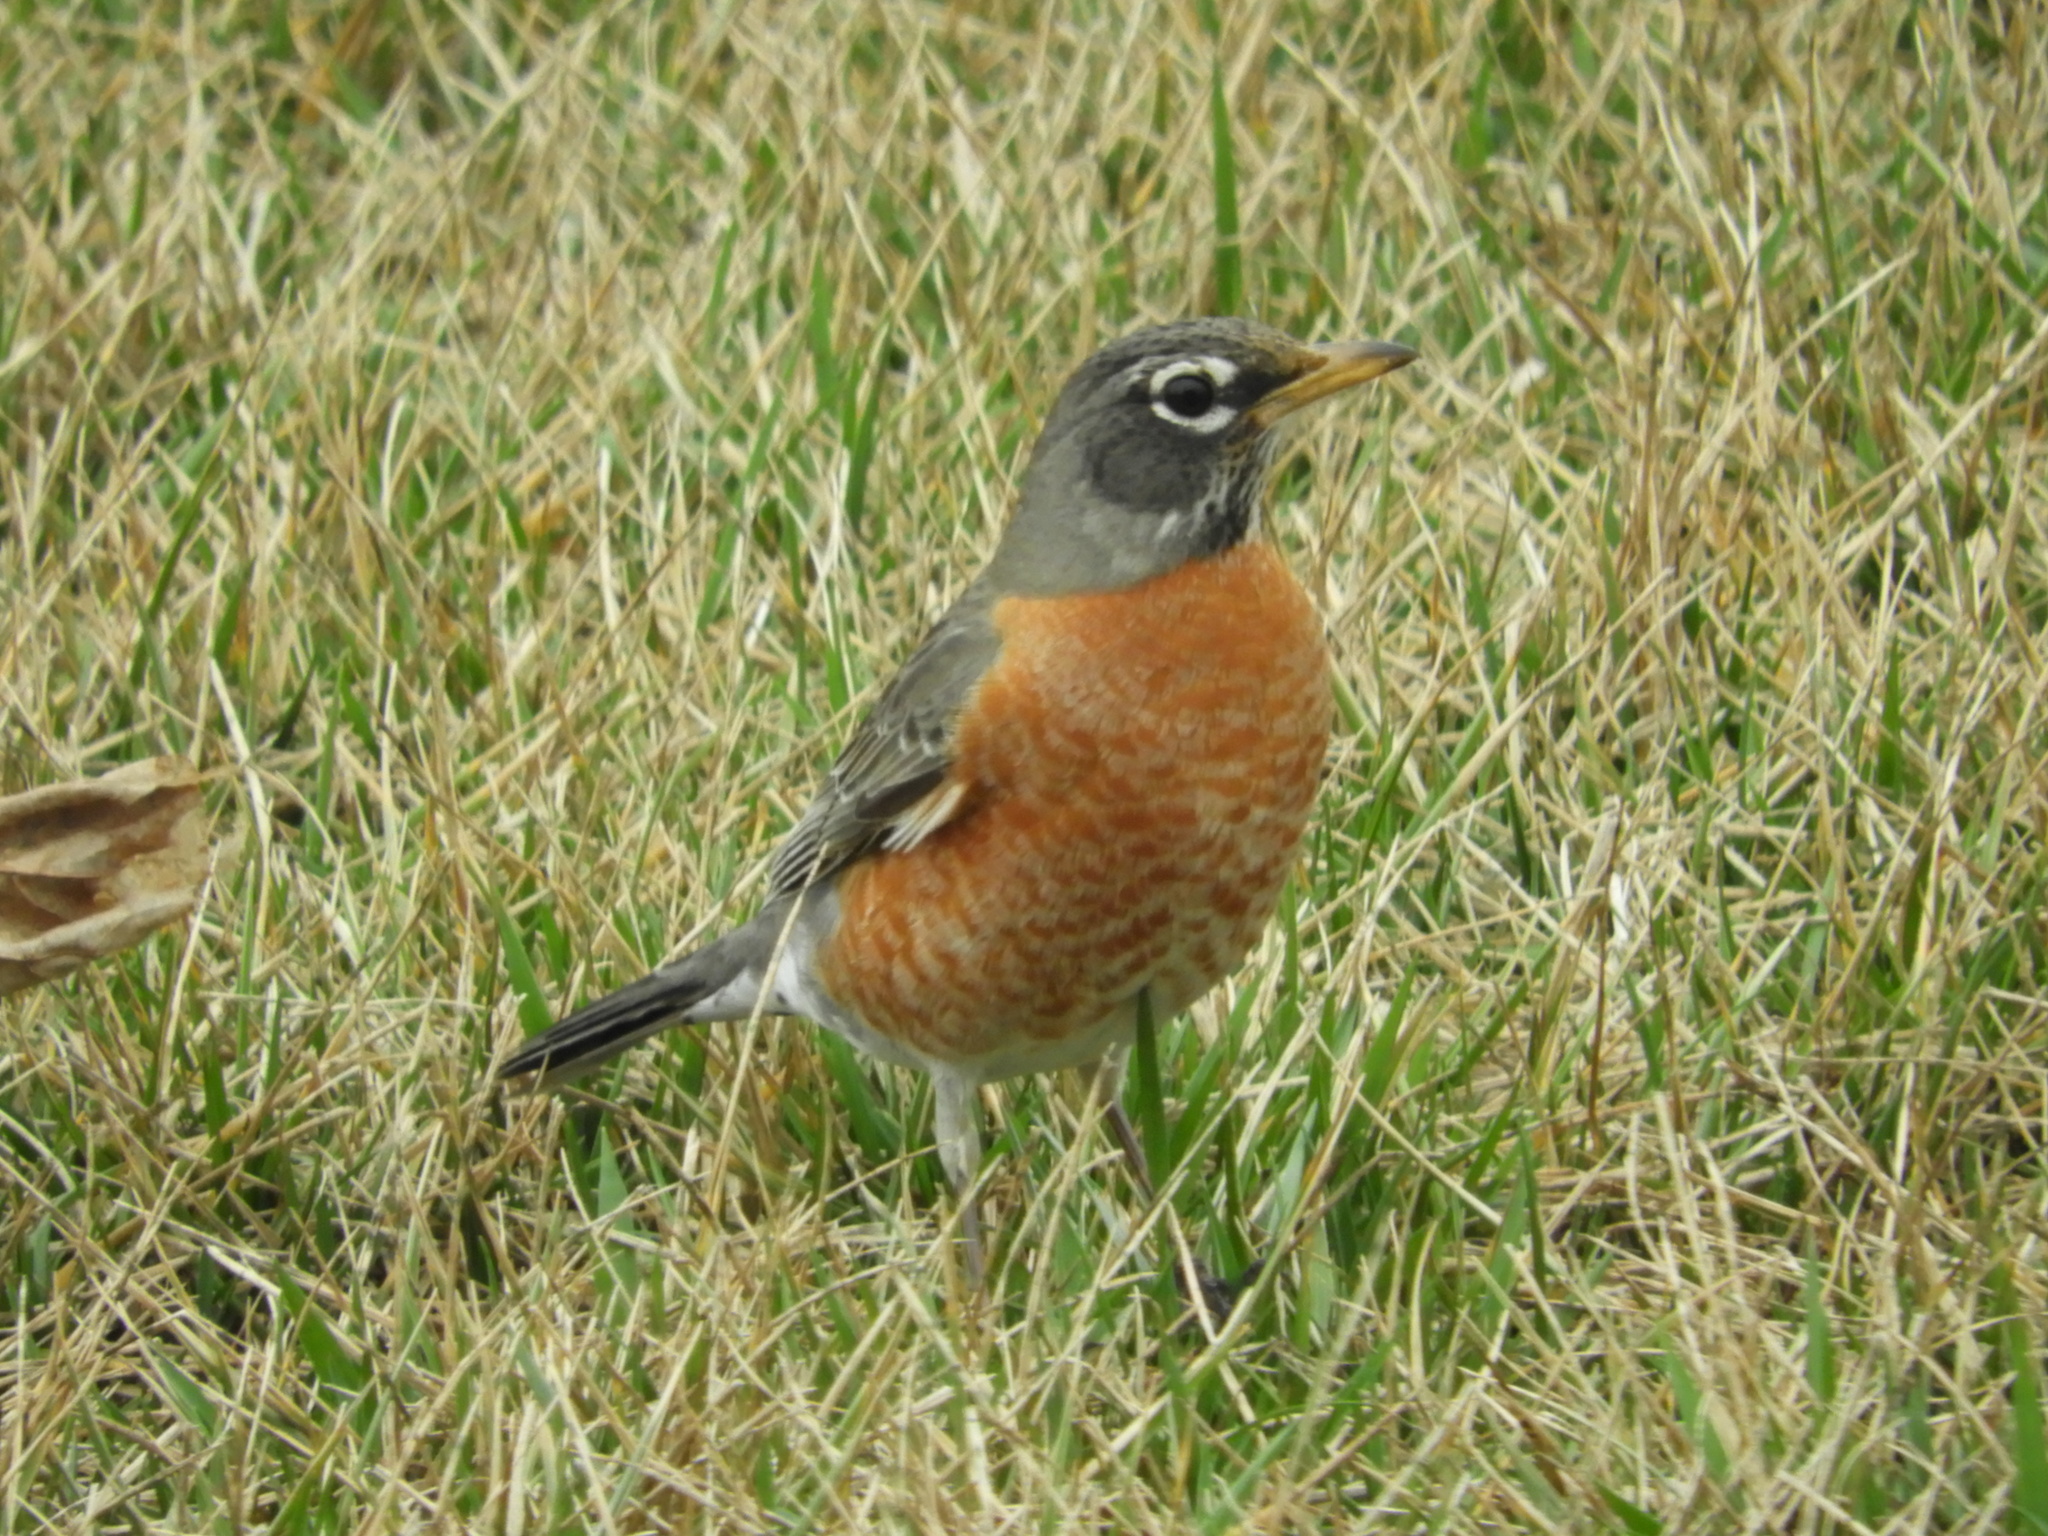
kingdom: Animalia
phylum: Chordata
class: Aves
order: Passeriformes
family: Turdidae
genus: Turdus
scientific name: Turdus migratorius
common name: American robin
